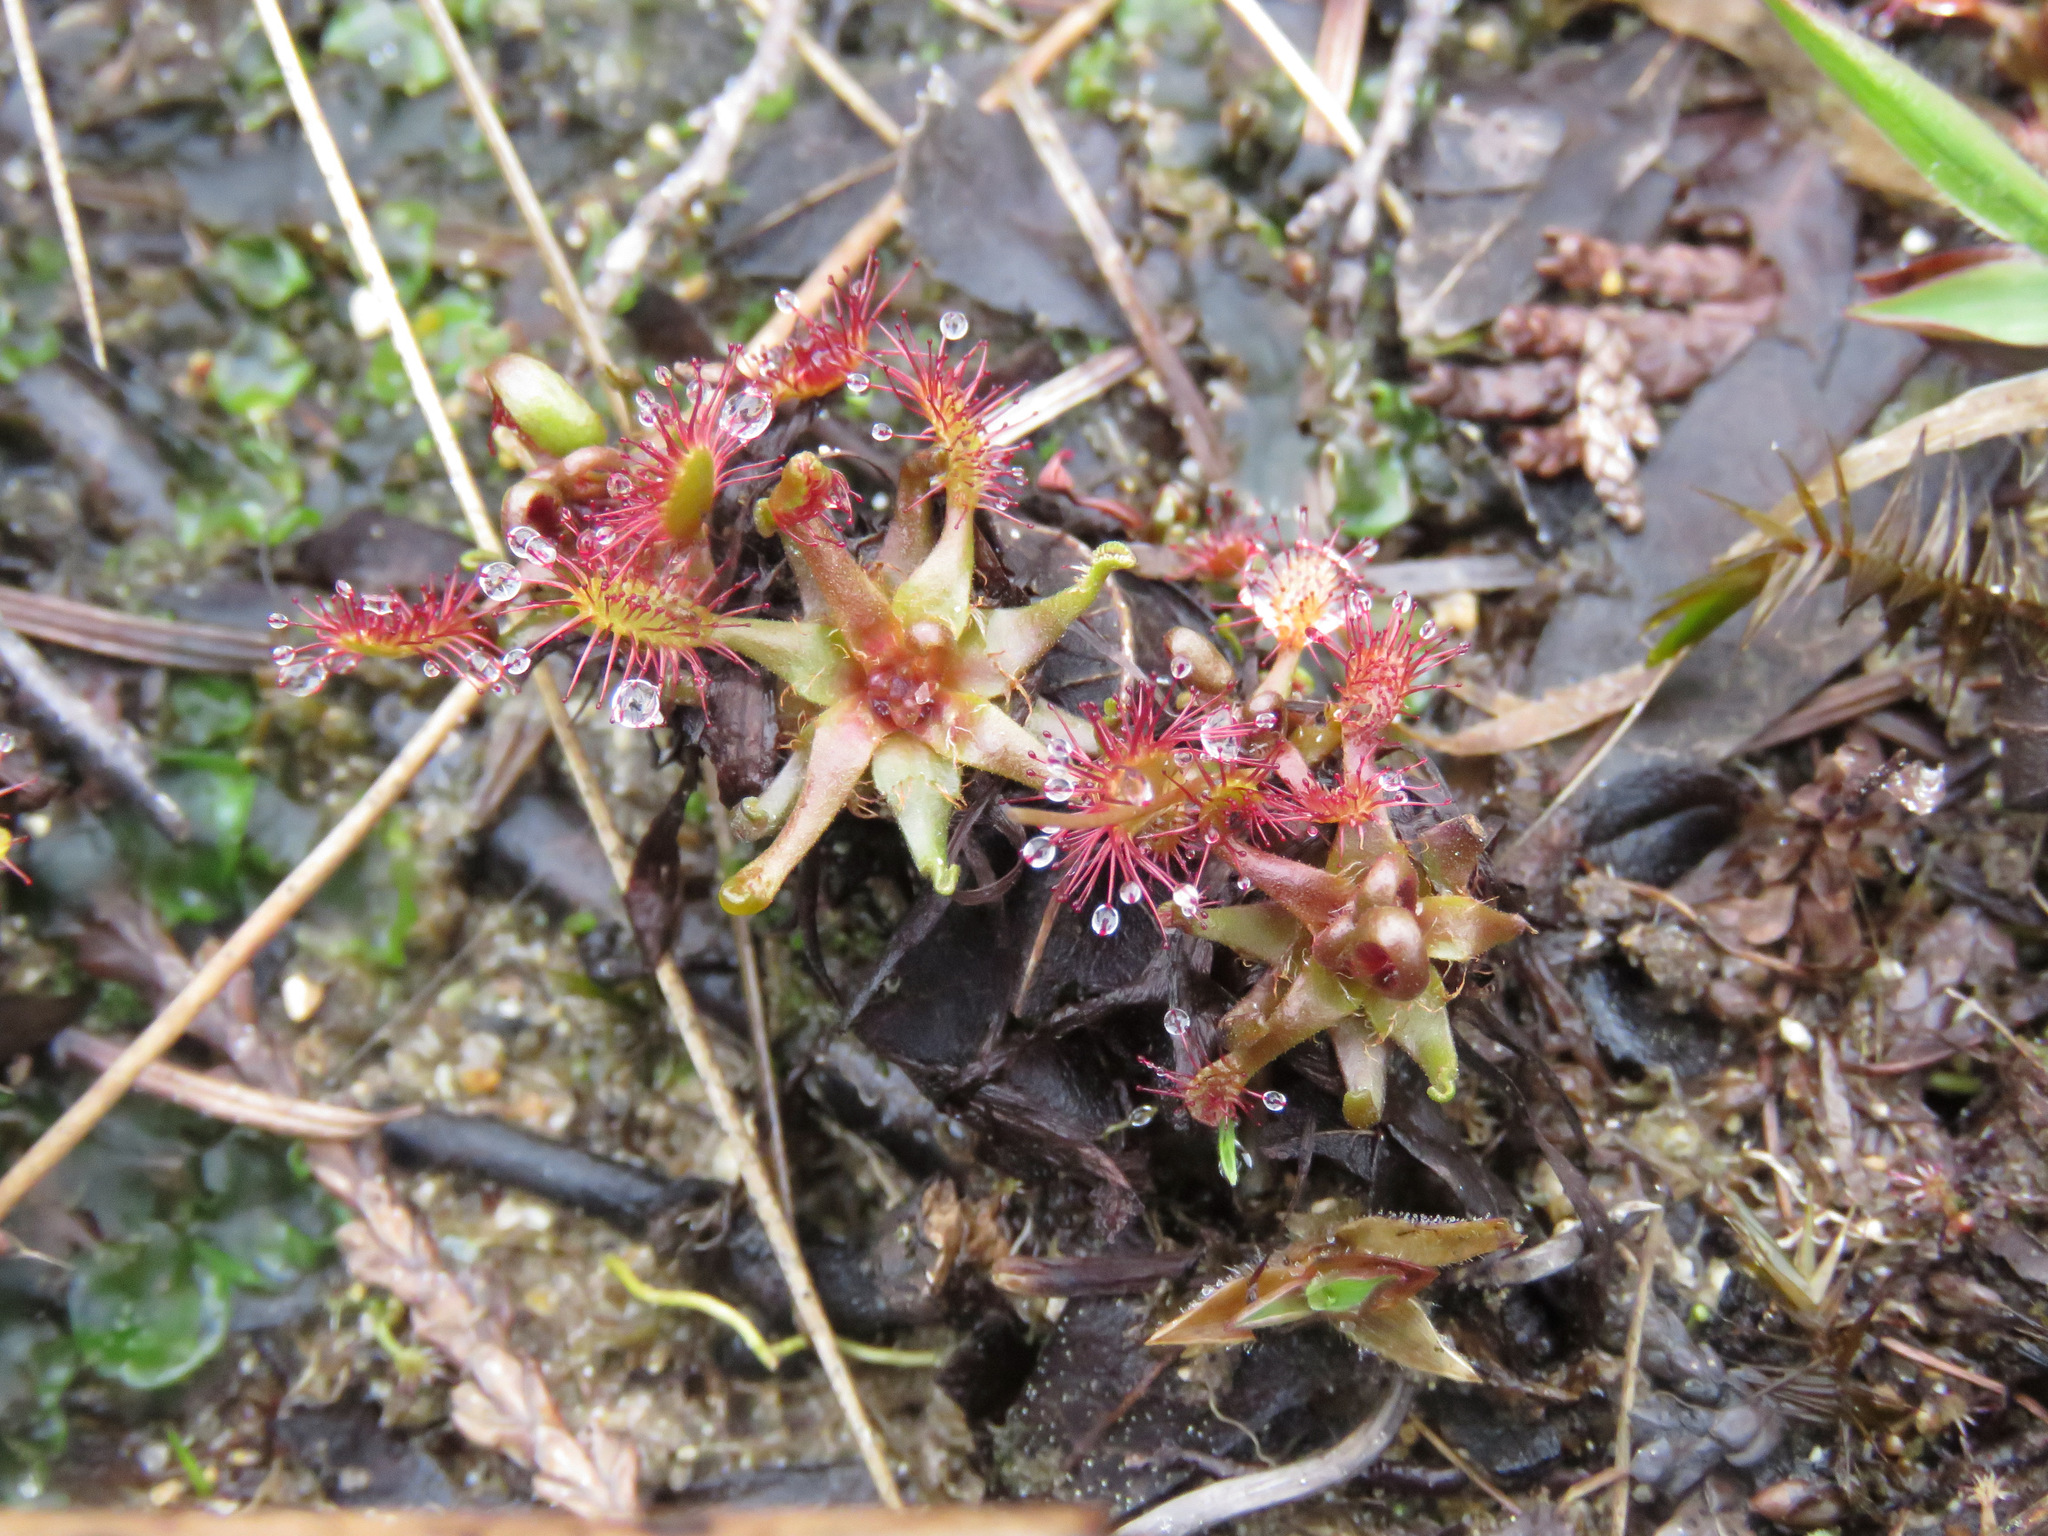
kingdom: Plantae
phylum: Tracheophyta
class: Magnoliopsida
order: Caryophyllales
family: Droseraceae
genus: Drosera
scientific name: Drosera anglica
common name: Great sundew
